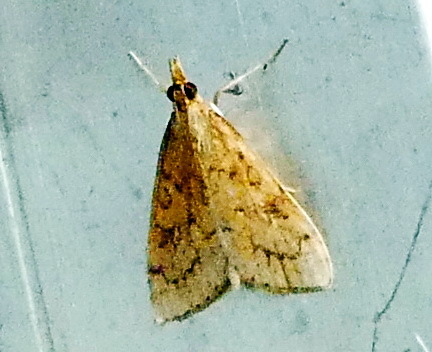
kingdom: Animalia
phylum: Arthropoda
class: Insecta
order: Lepidoptera
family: Crambidae
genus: Udea
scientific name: Udea rubigalis
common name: Celery leaftier moth
